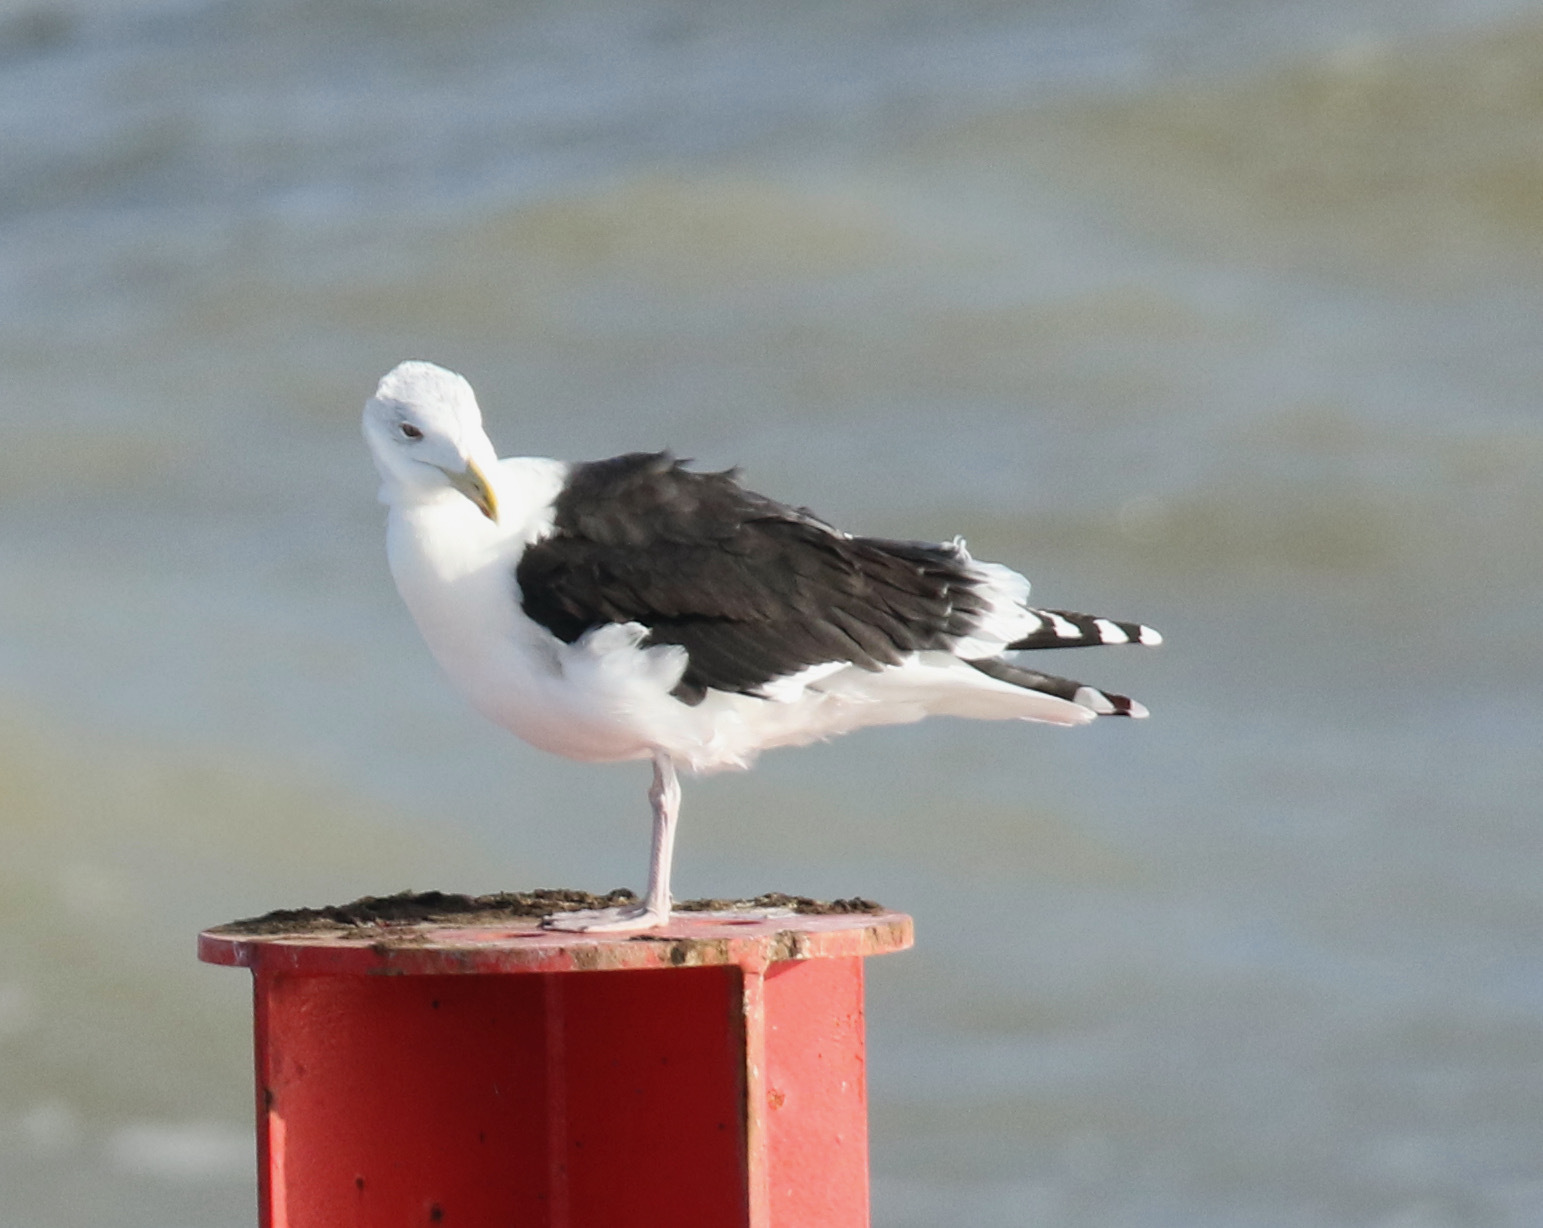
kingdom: Animalia
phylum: Chordata
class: Aves
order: Charadriiformes
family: Laridae
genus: Larus
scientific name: Larus marinus
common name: Great black-backed gull
